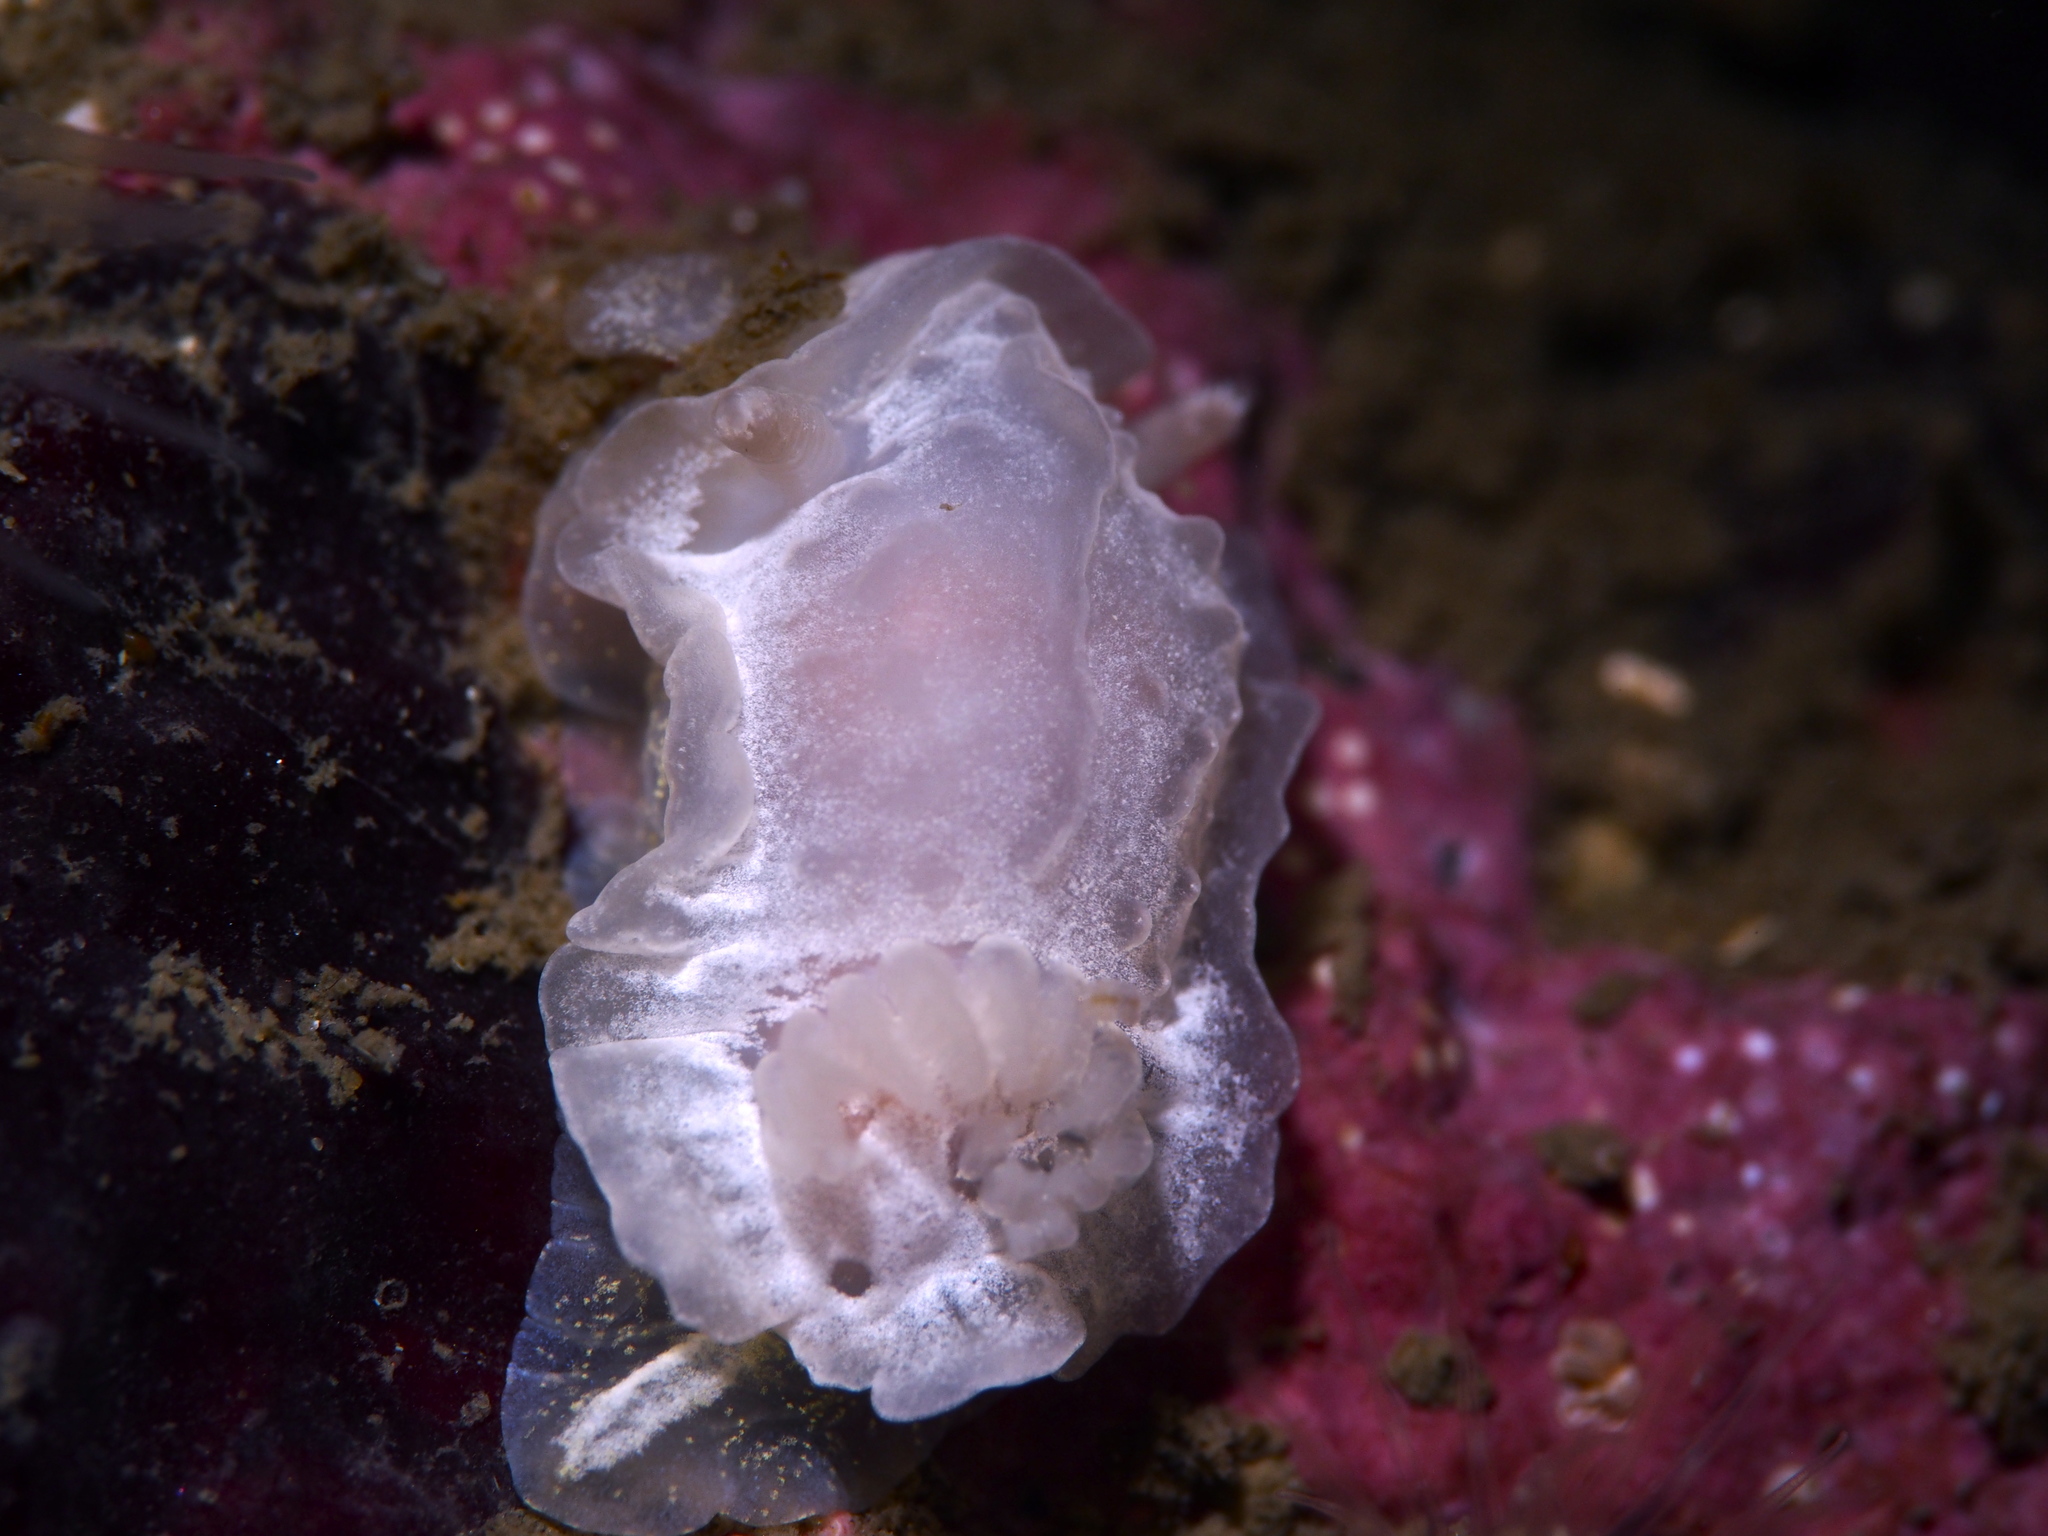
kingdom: Animalia
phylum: Mollusca
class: Gastropoda
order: Nudibranchia
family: Goniodorididae
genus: Okenia
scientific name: Okenia
